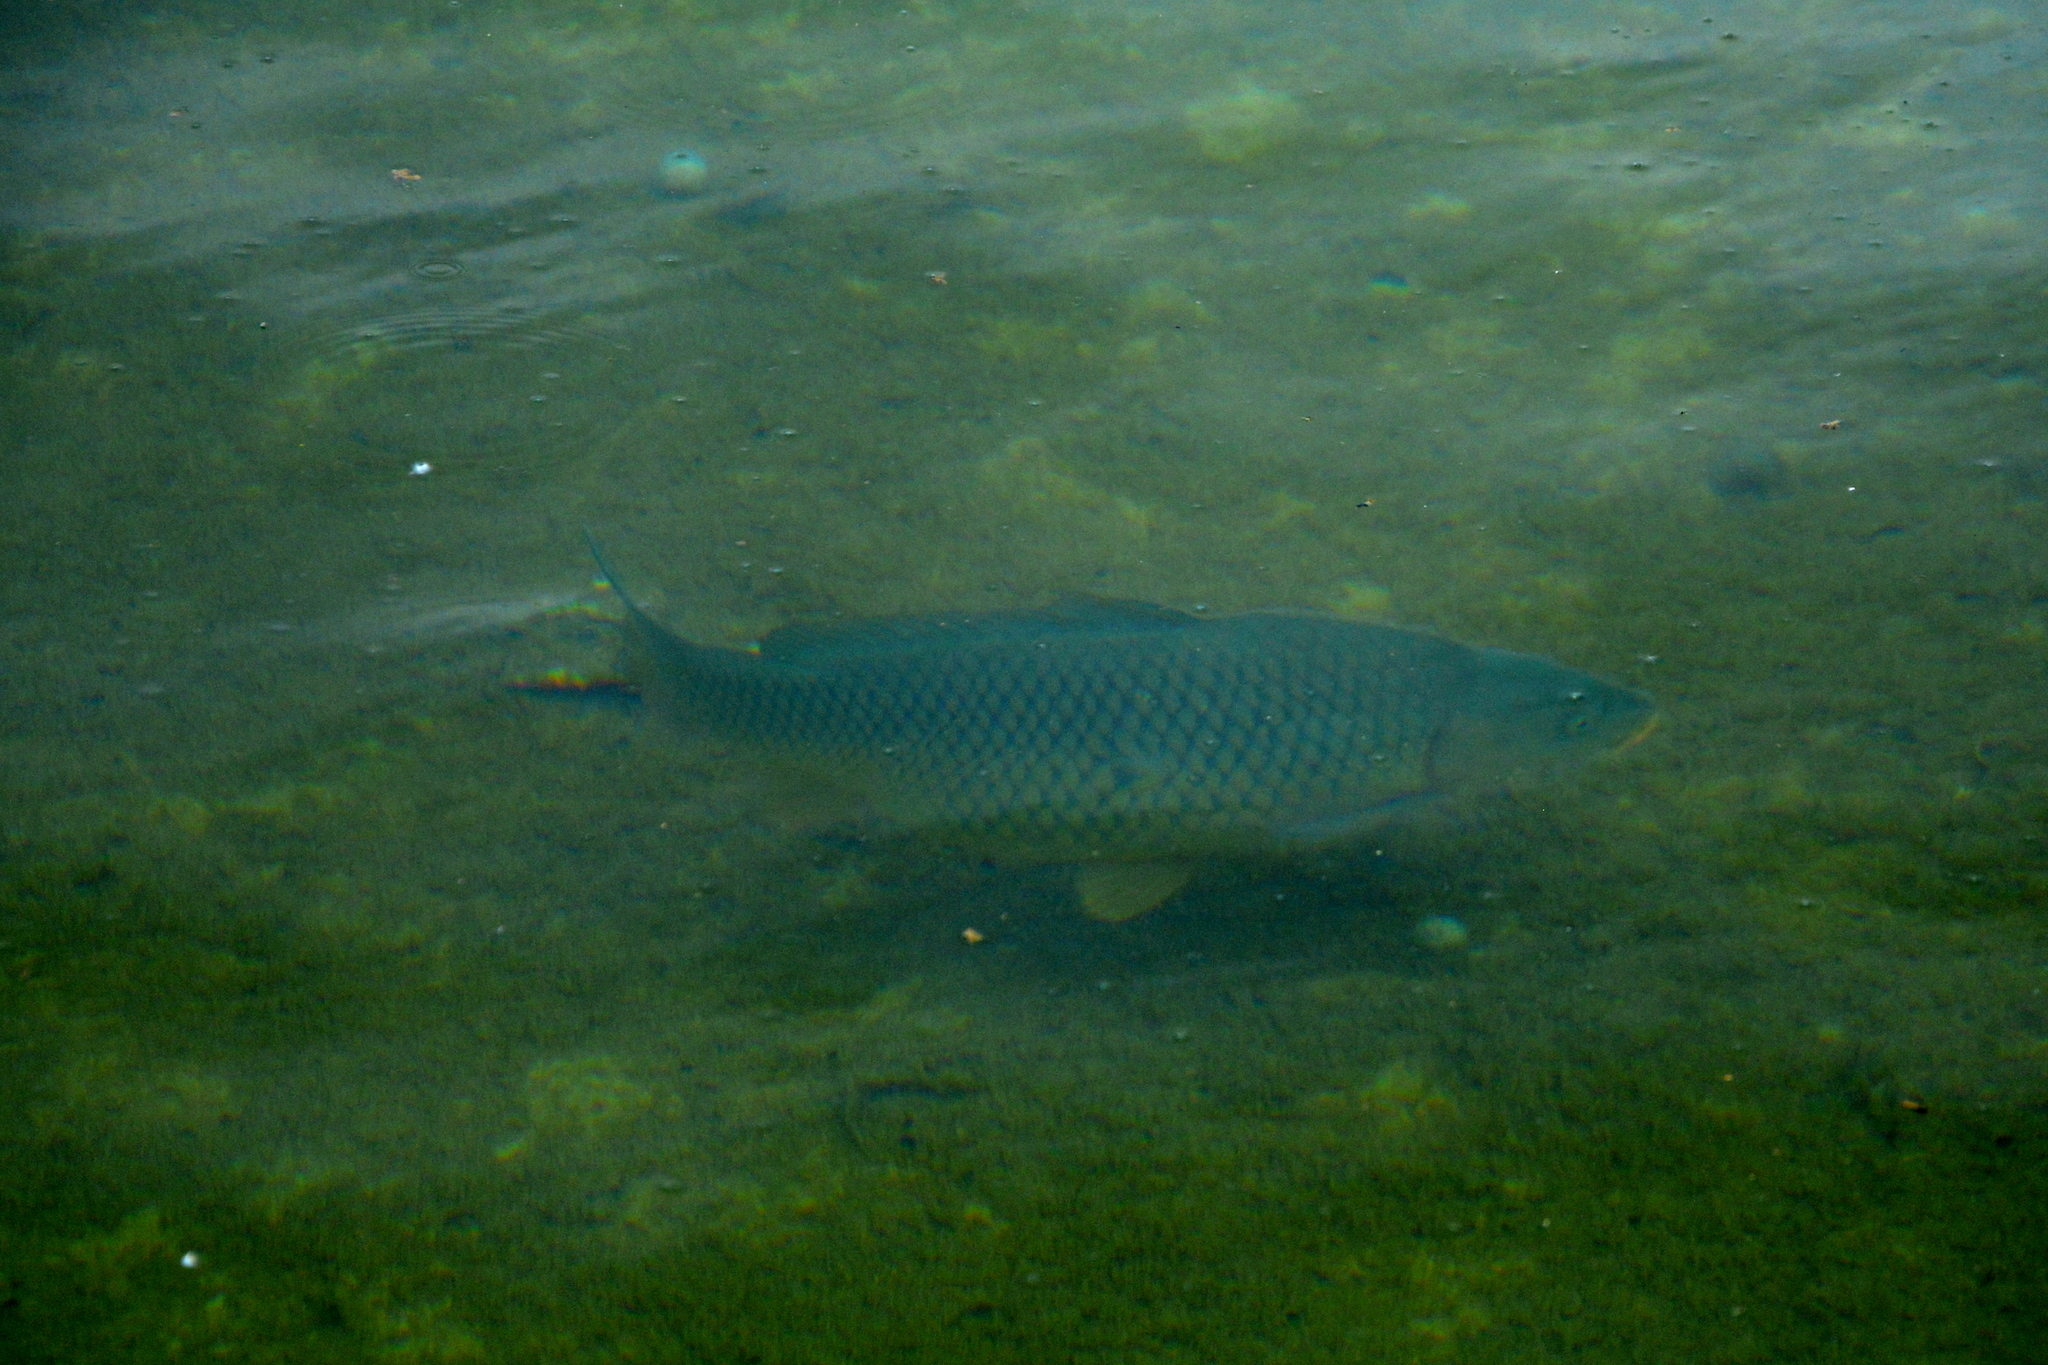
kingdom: Animalia
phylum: Chordata
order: Cypriniformes
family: Cyprinidae
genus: Cyprinus
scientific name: Cyprinus carpio
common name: Common carp
